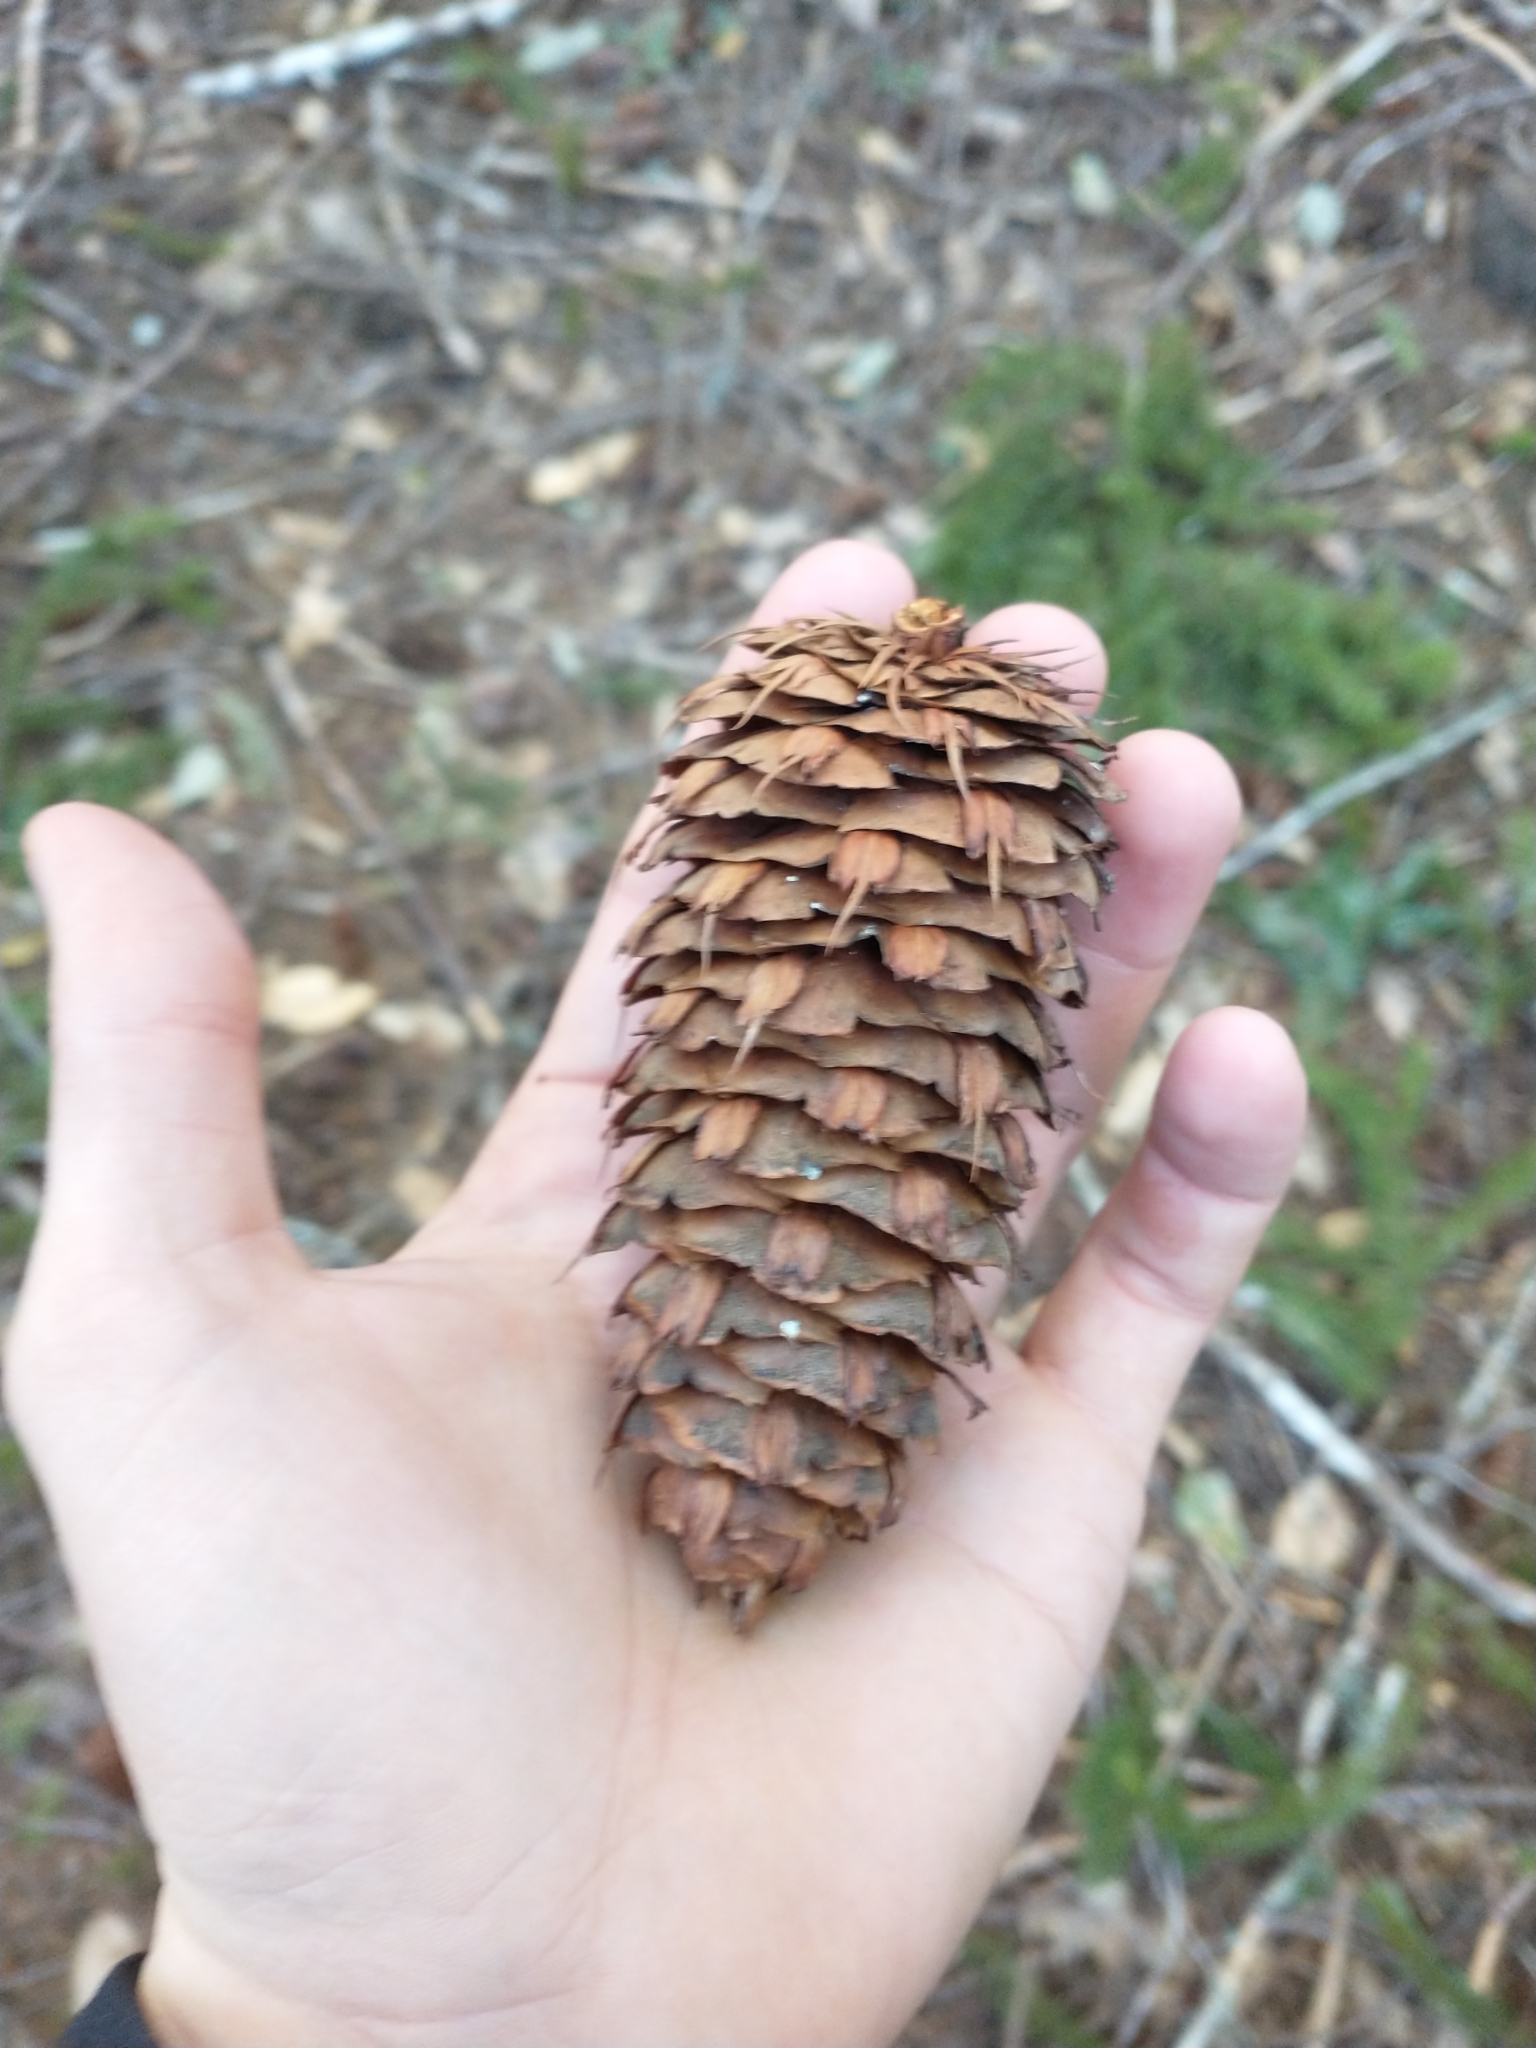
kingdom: Plantae
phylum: Tracheophyta
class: Pinopsida
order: Pinales
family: Pinaceae
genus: Pseudotsuga
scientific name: Pseudotsuga menziesii
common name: Douglas fir
